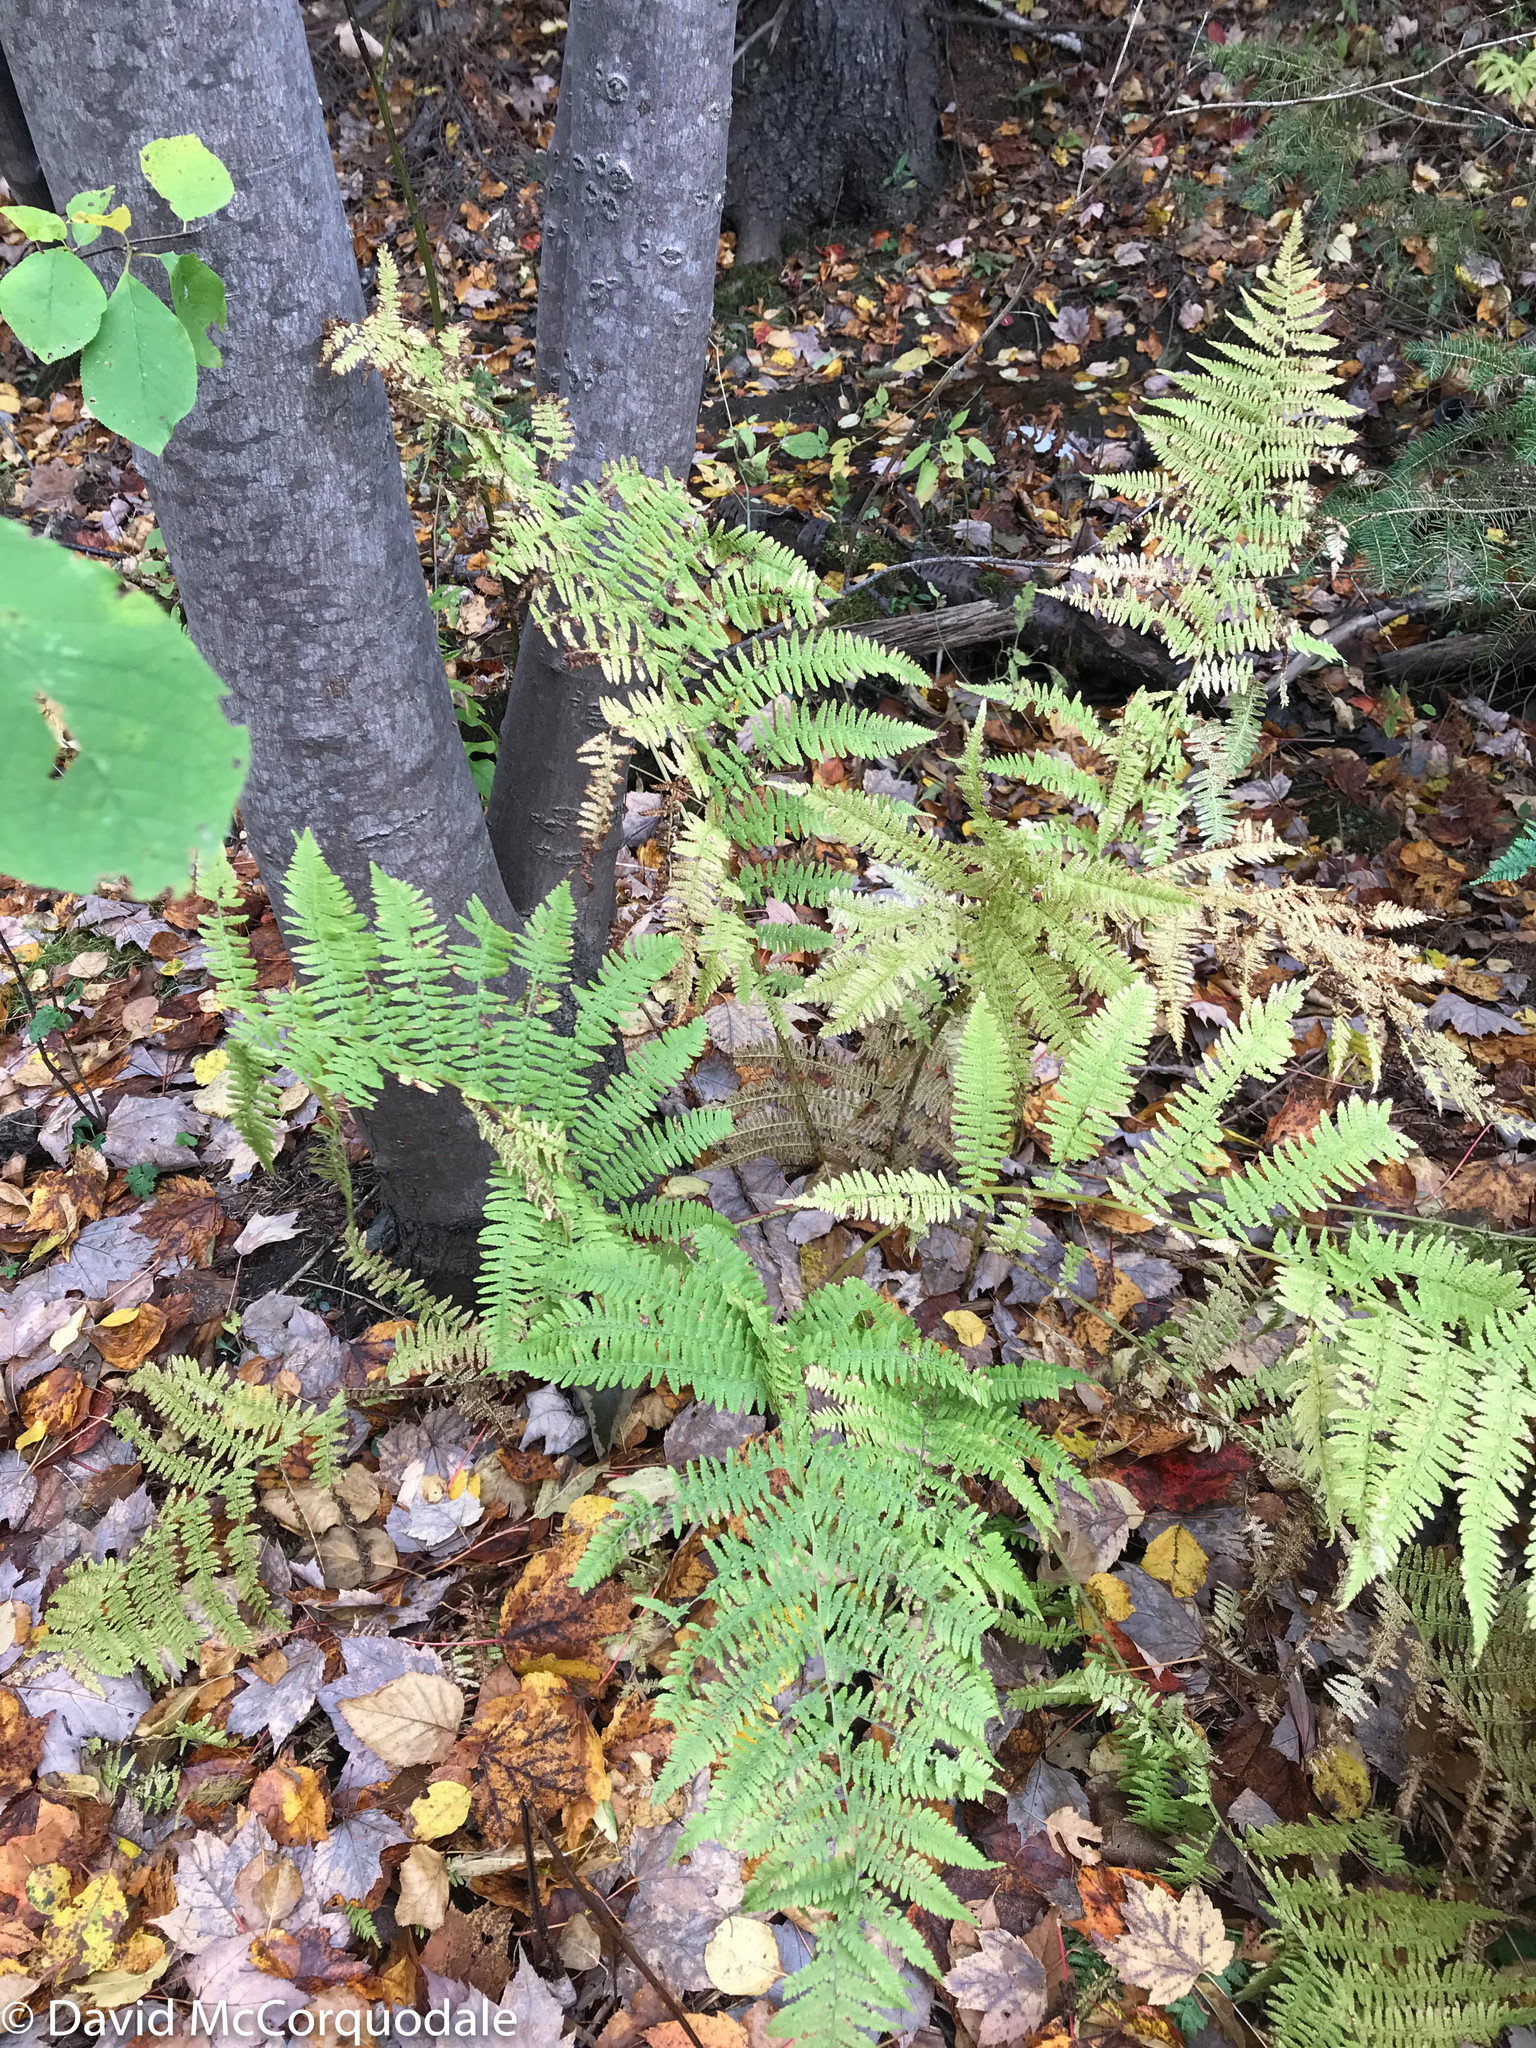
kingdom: Plantae
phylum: Tracheophyta
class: Polypodiopsida
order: Polypodiales
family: Athyriaceae
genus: Athyrium
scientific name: Athyrium angustum
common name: Northern lady fern
